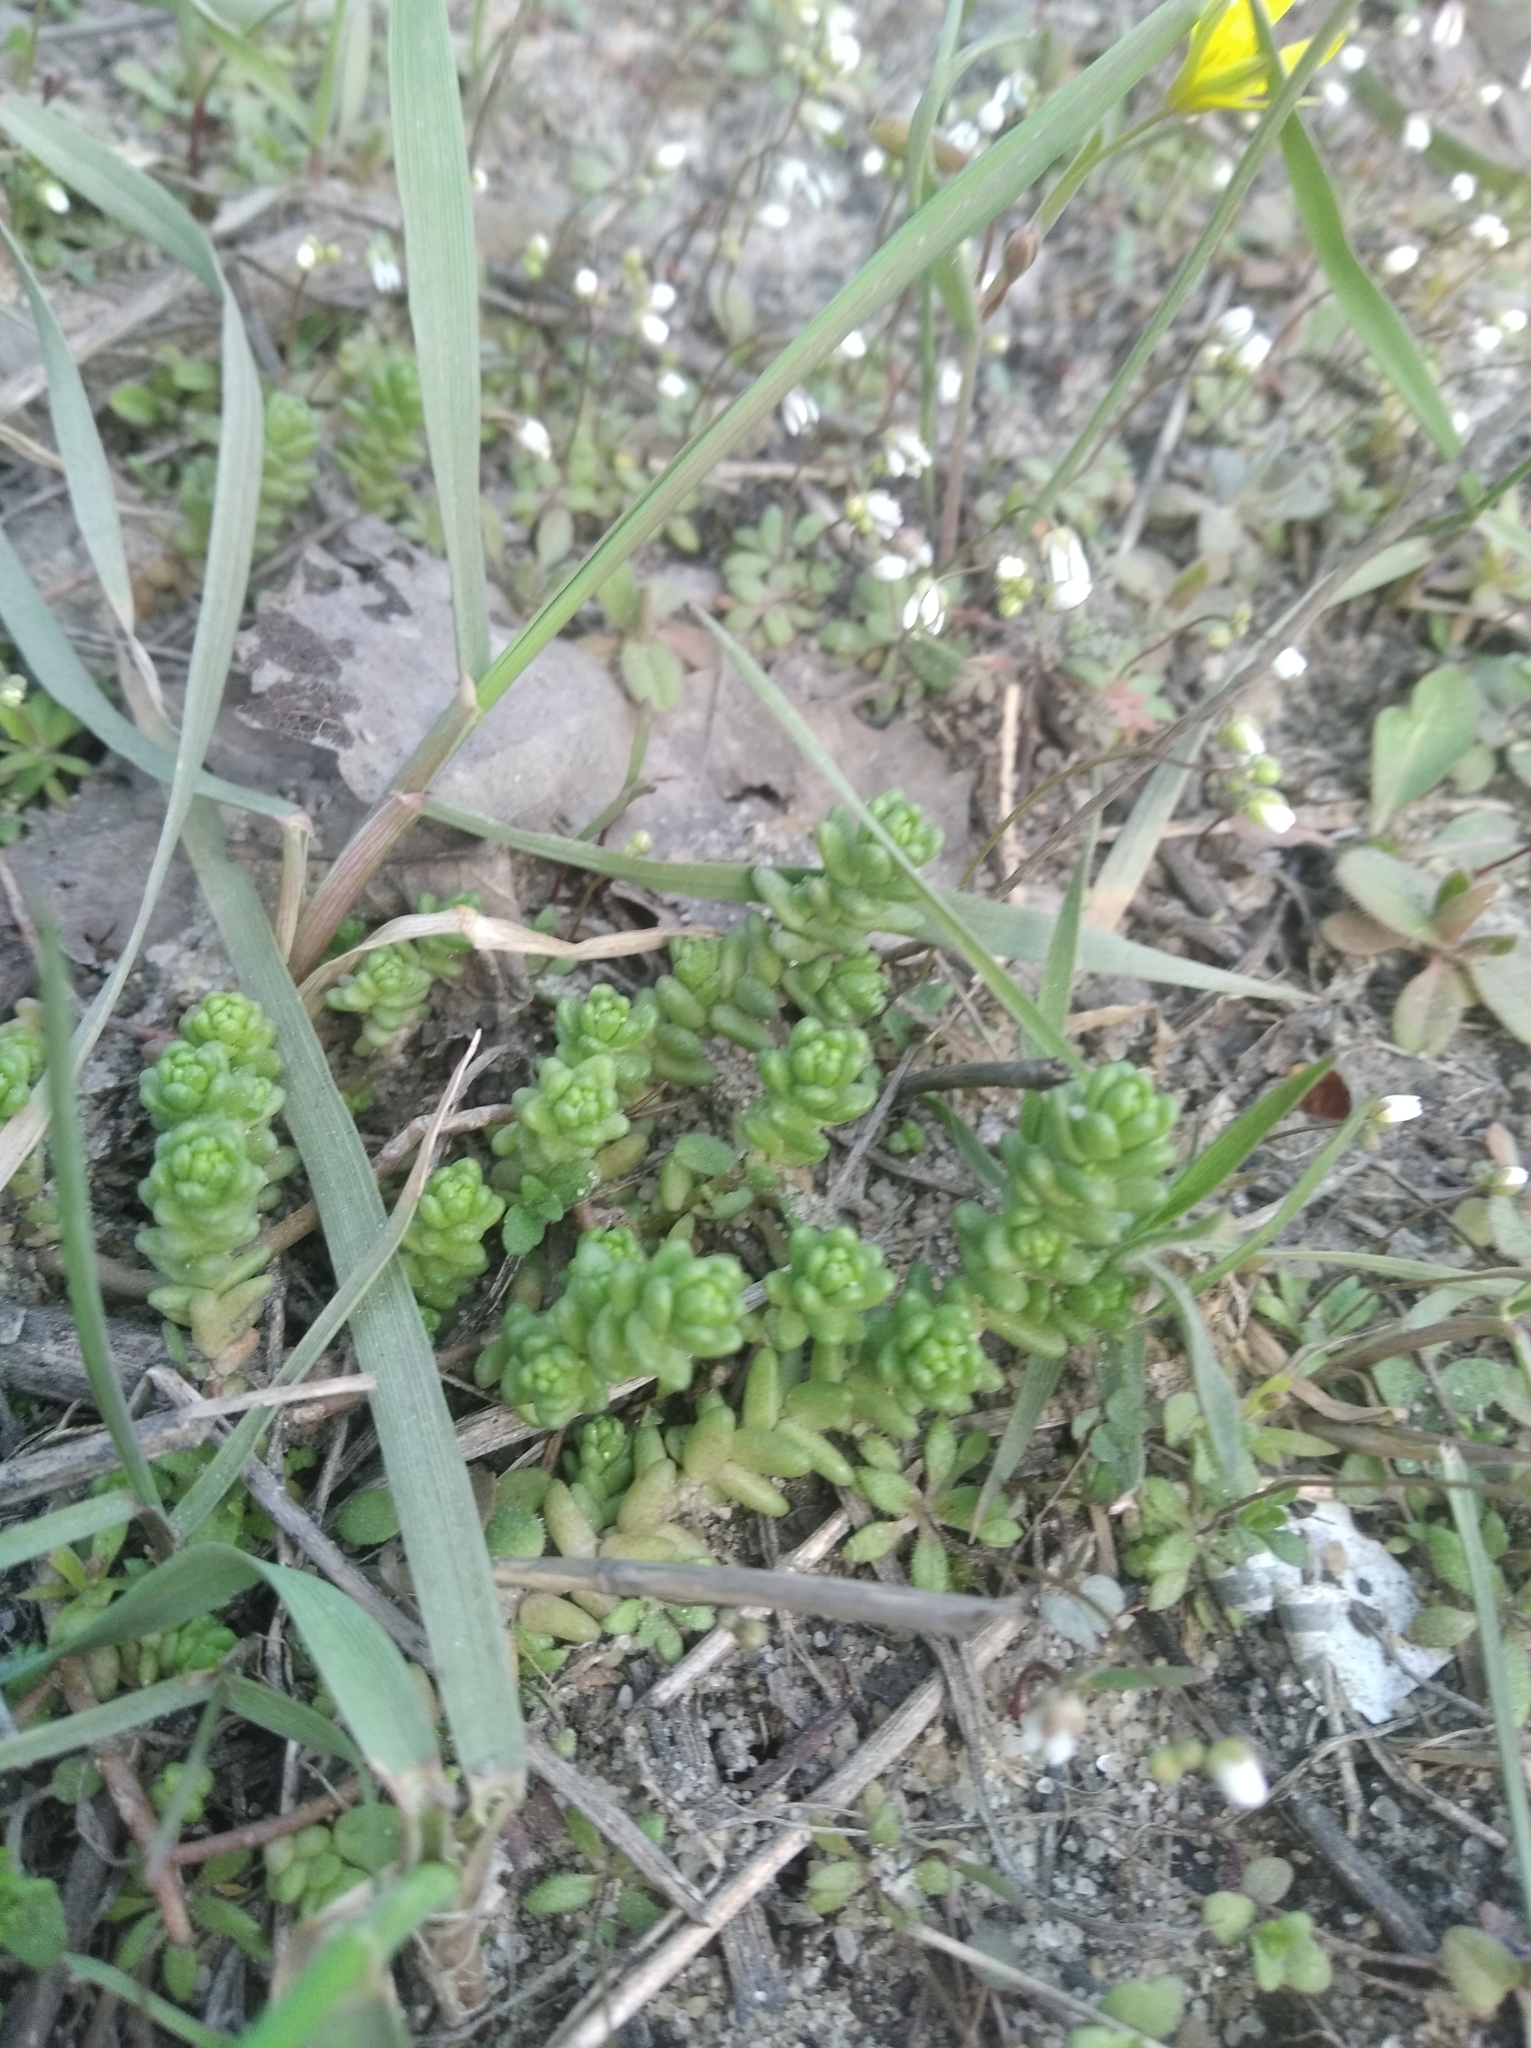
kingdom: Plantae
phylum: Tracheophyta
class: Magnoliopsida
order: Saxifragales
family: Crassulaceae
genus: Sedum
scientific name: Sedum acre
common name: Biting stonecrop
